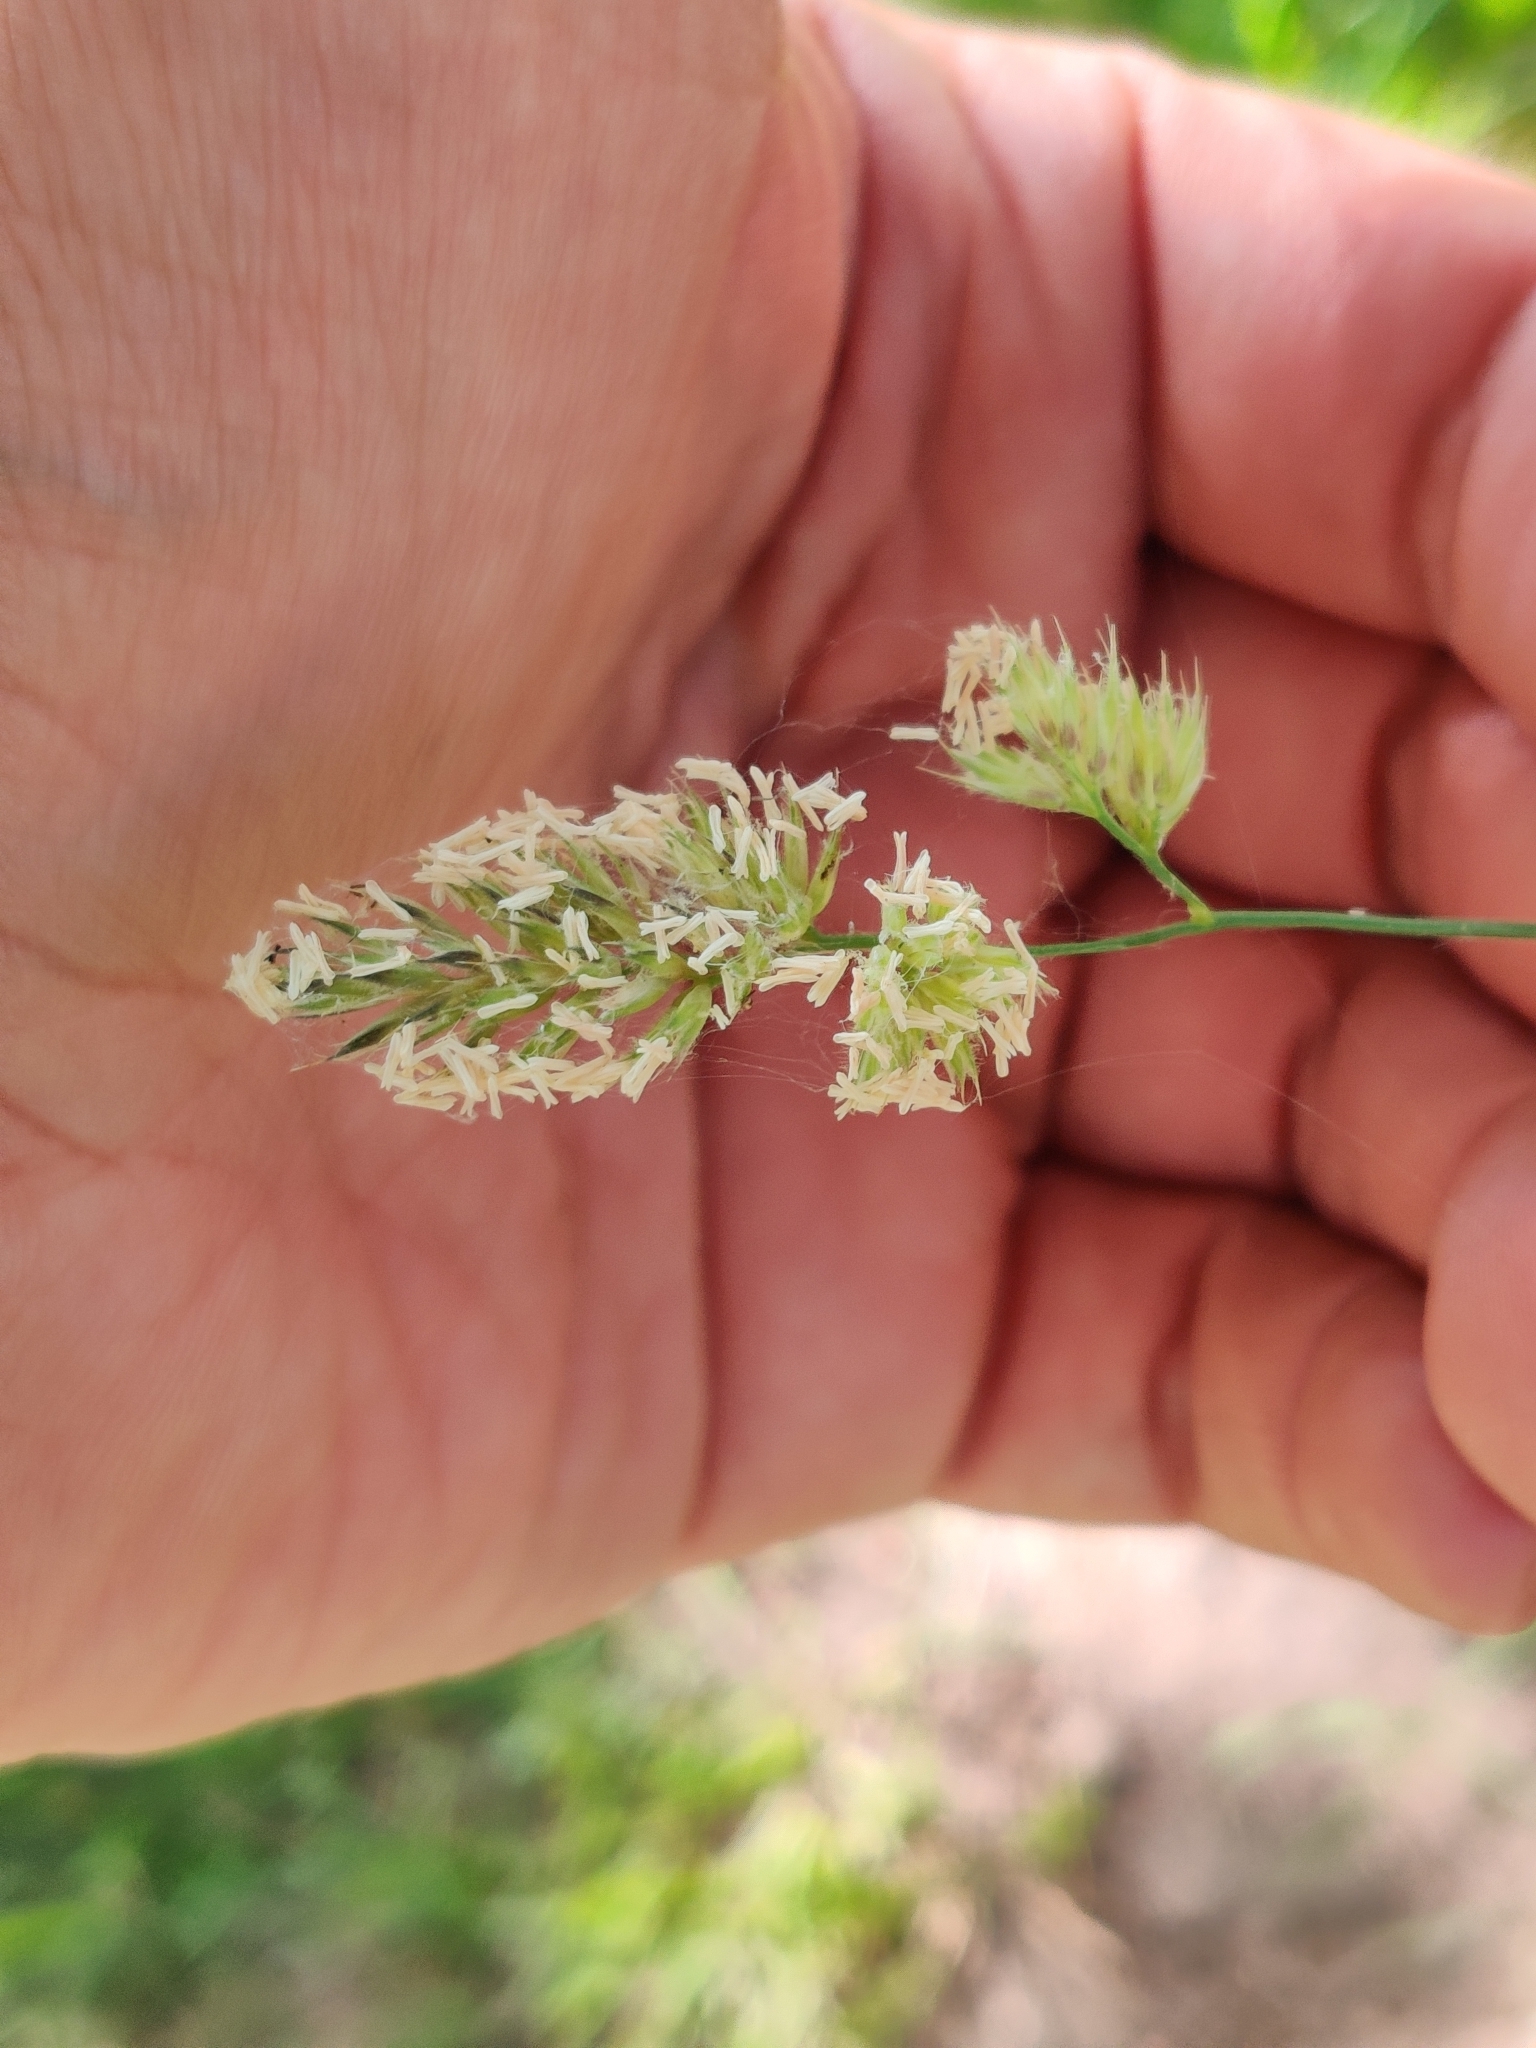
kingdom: Plantae
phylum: Tracheophyta
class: Liliopsida
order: Poales
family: Poaceae
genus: Dactylis
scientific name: Dactylis glomerata
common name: Orchardgrass
